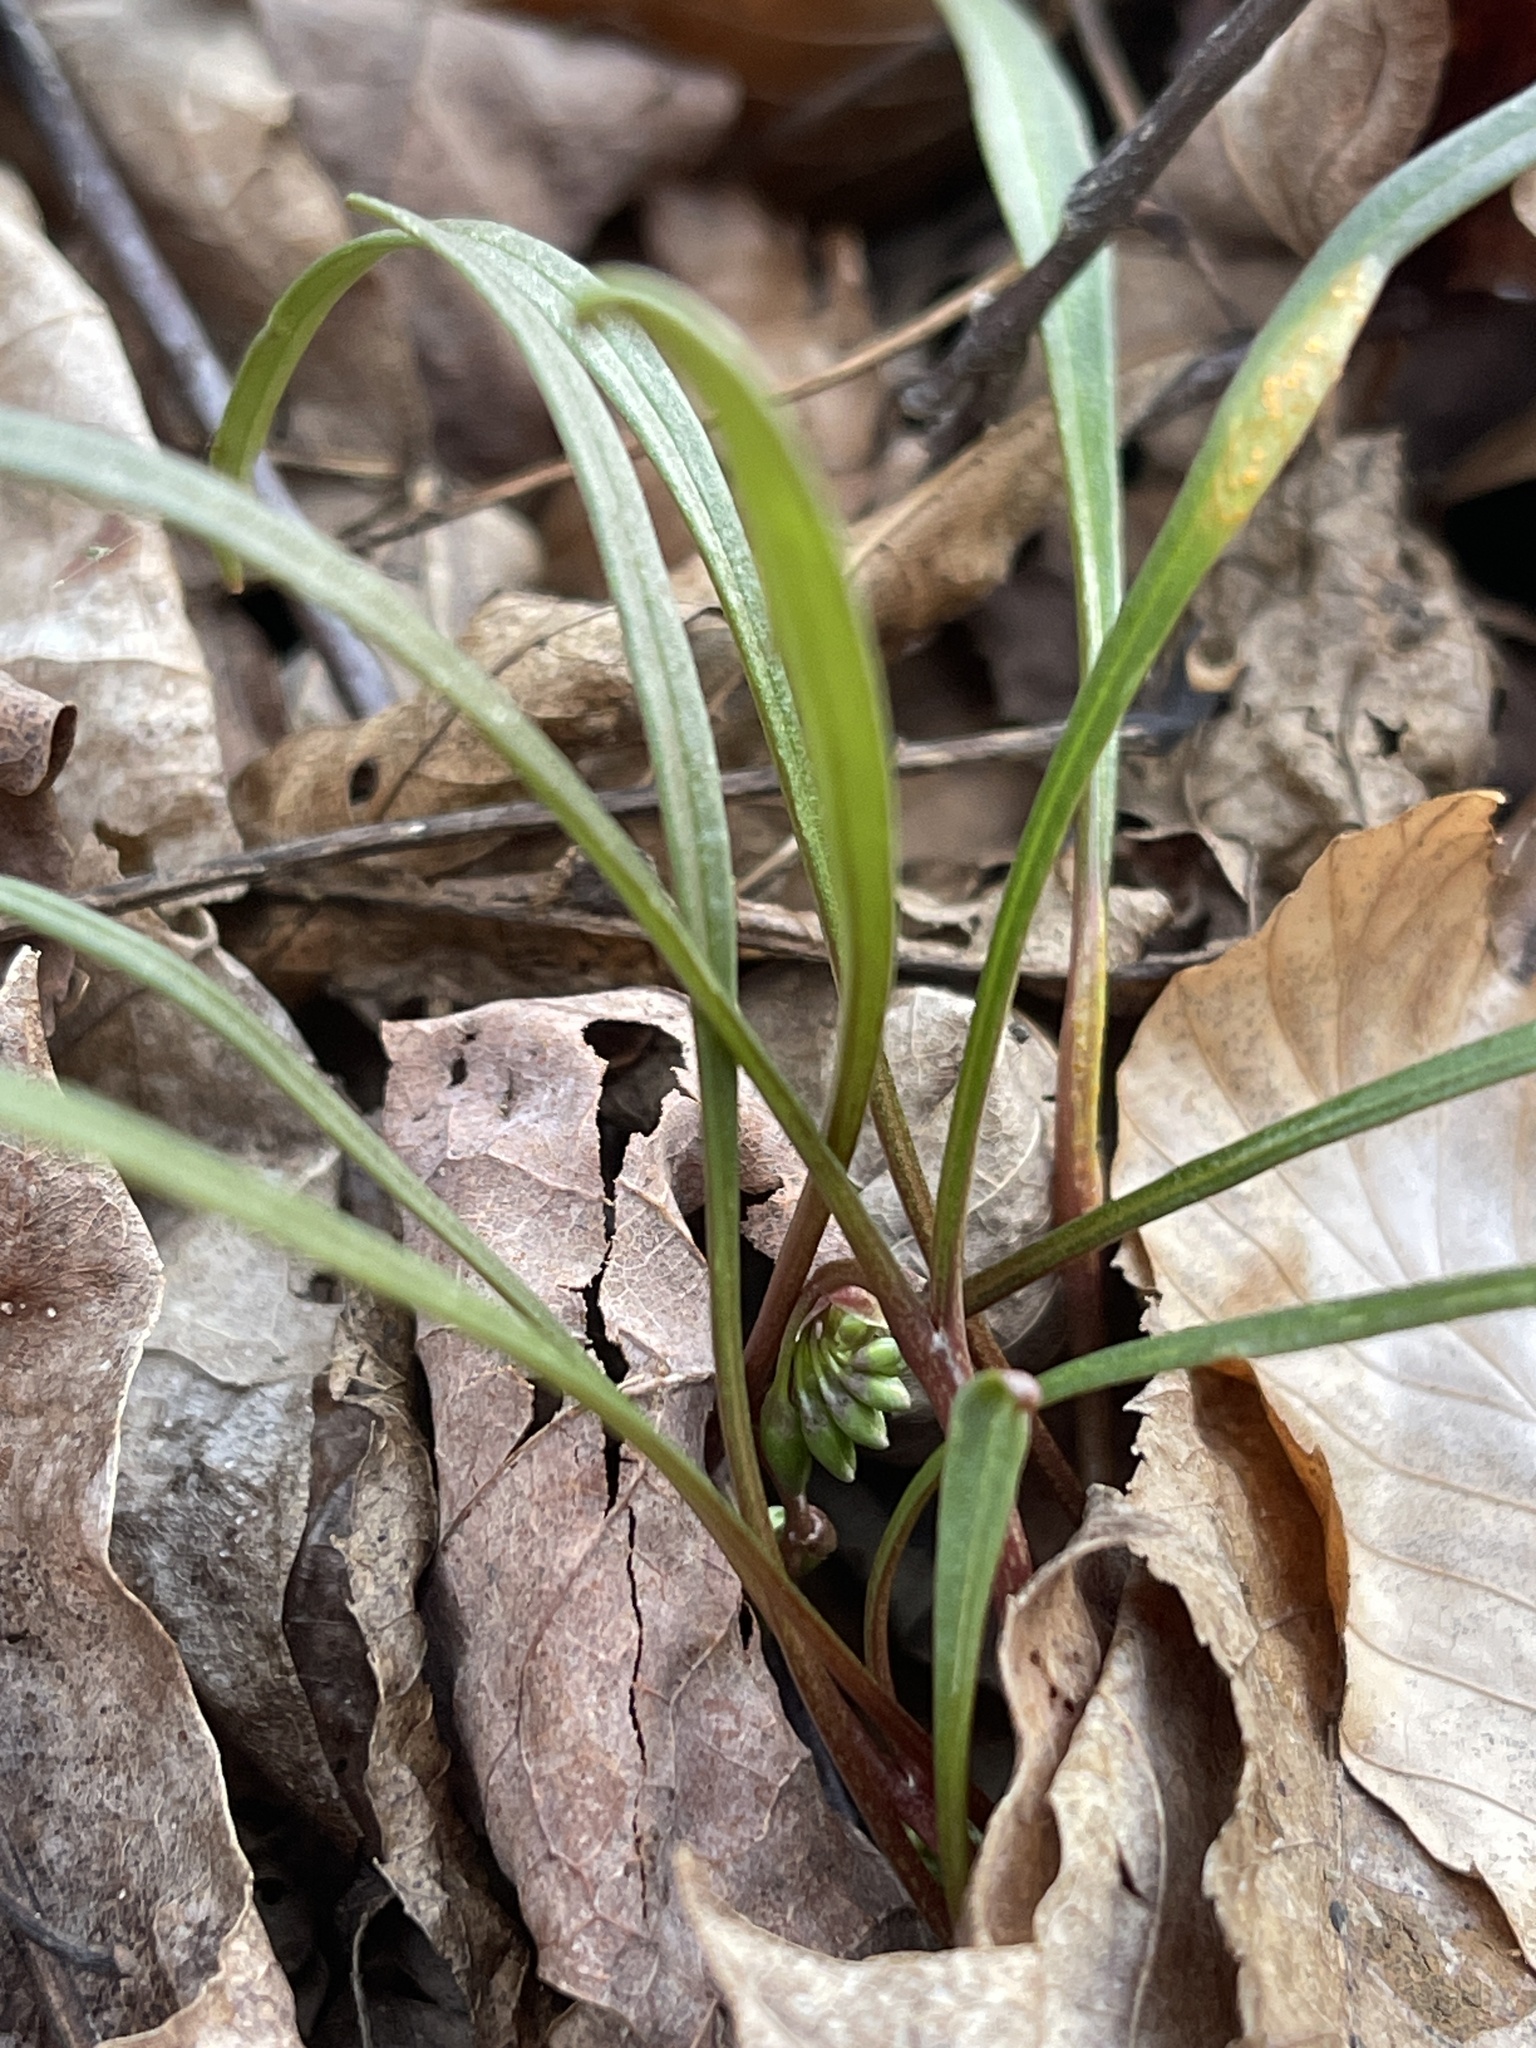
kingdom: Plantae
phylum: Tracheophyta
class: Magnoliopsida
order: Caryophyllales
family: Montiaceae
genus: Claytonia
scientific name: Claytonia virginica
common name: Virginia springbeauty
